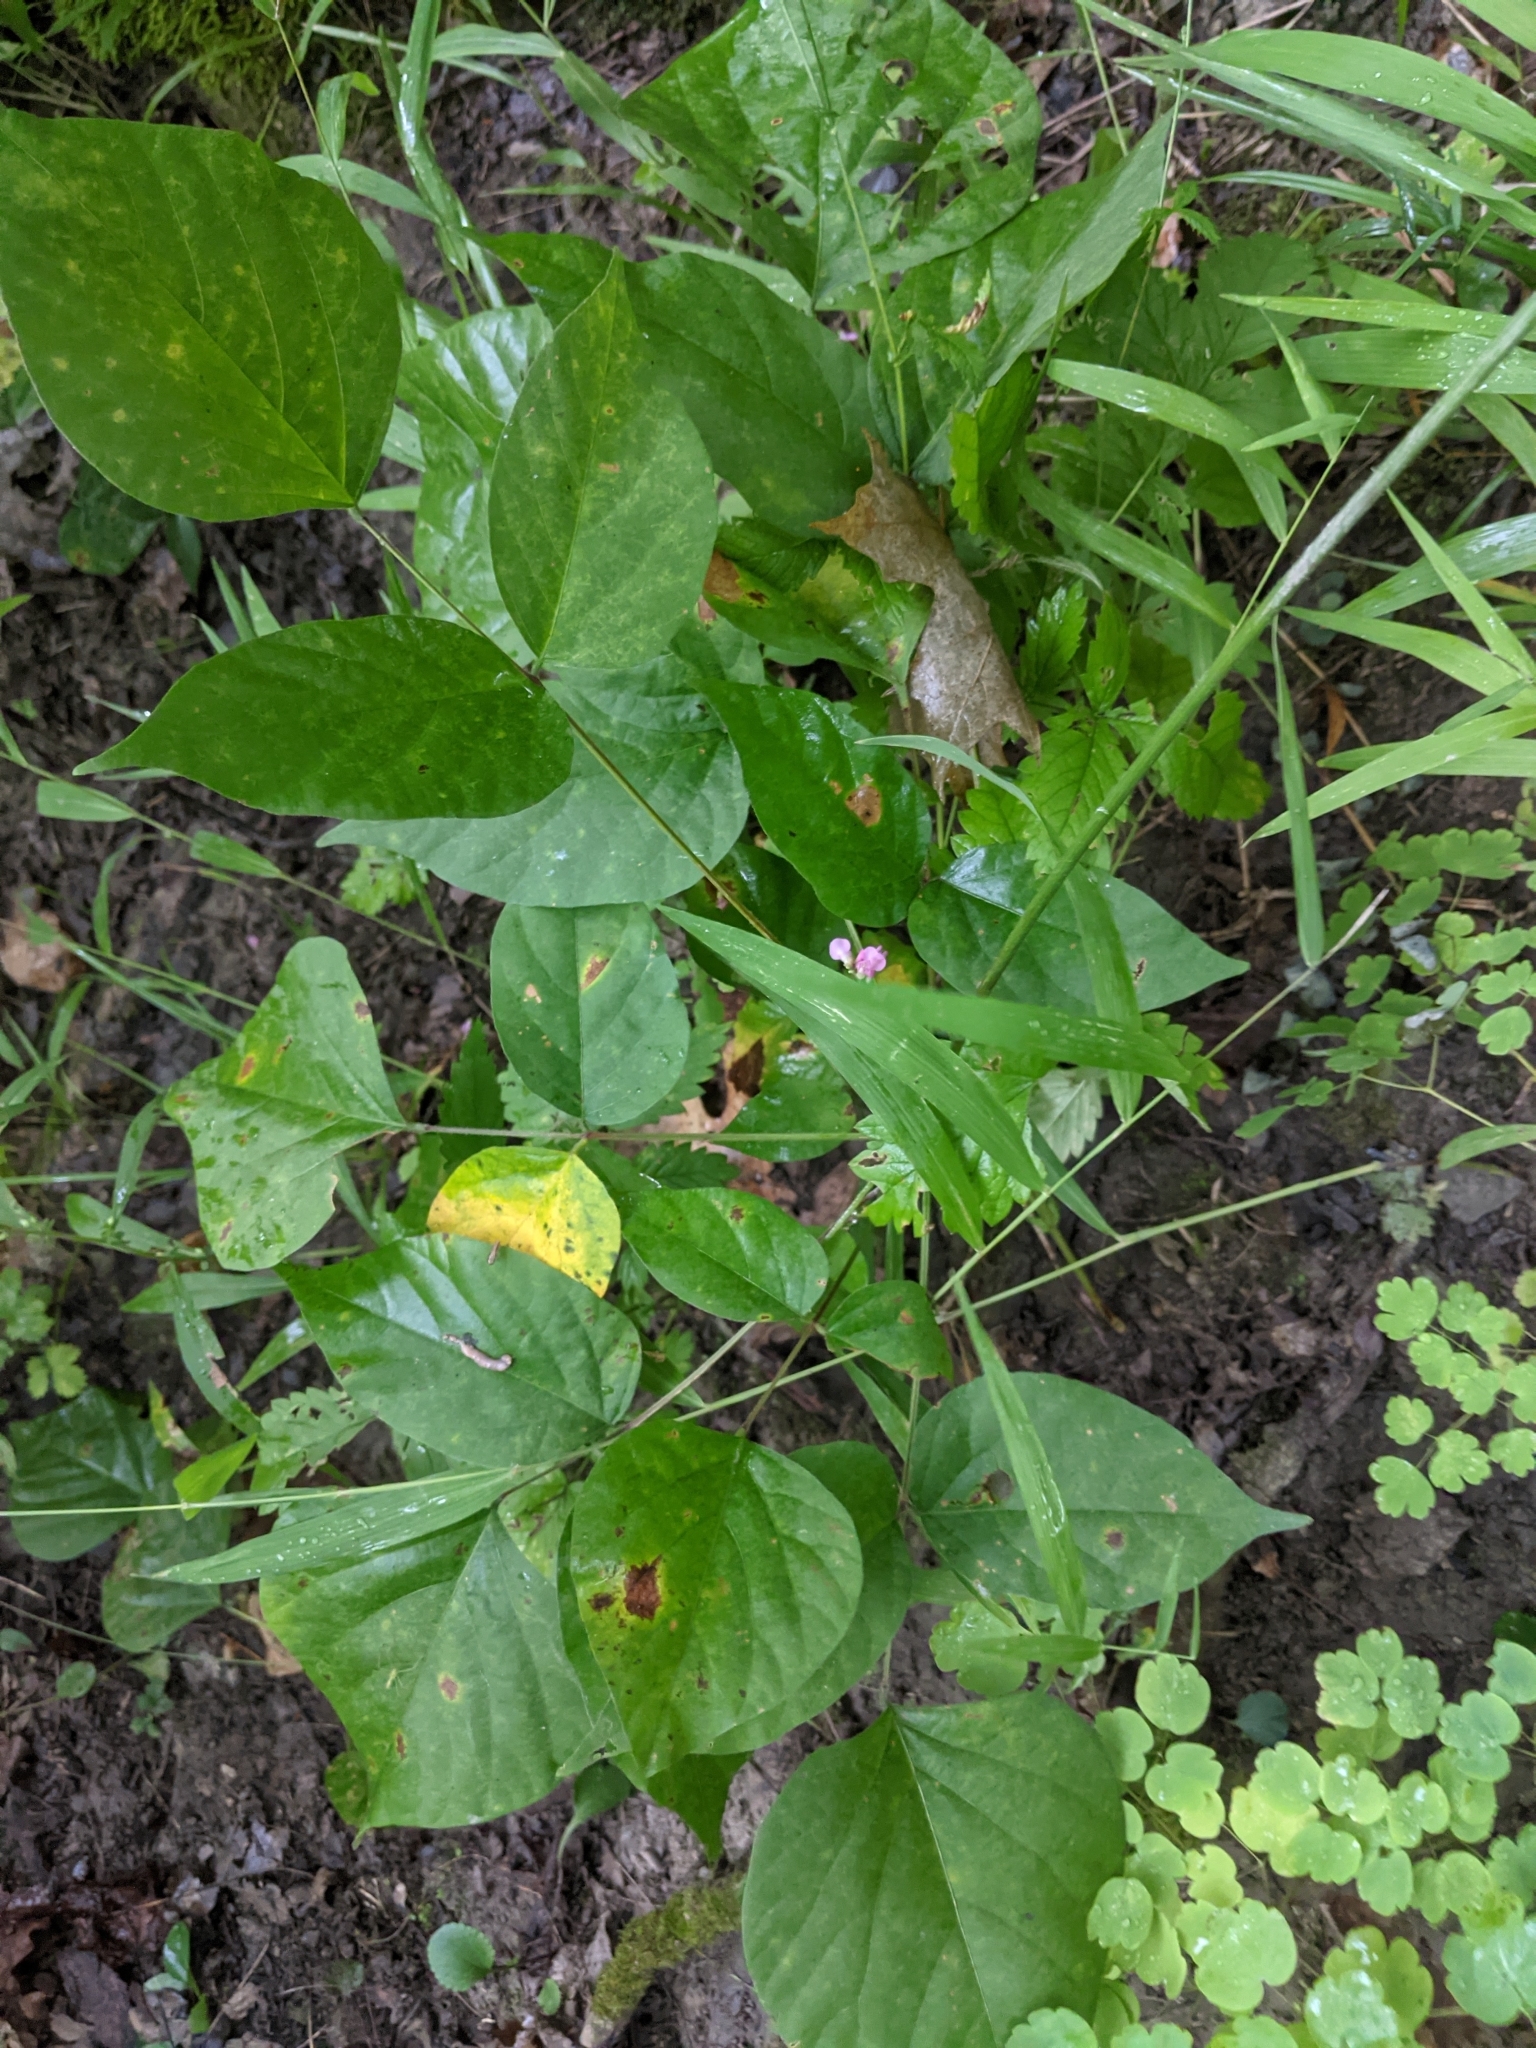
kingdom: Plantae
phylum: Tracheophyta
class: Magnoliopsida
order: Fabales
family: Fabaceae
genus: Hylodesmum
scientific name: Hylodesmum glutinosum
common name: Clustered-leaved tick-trefoil
